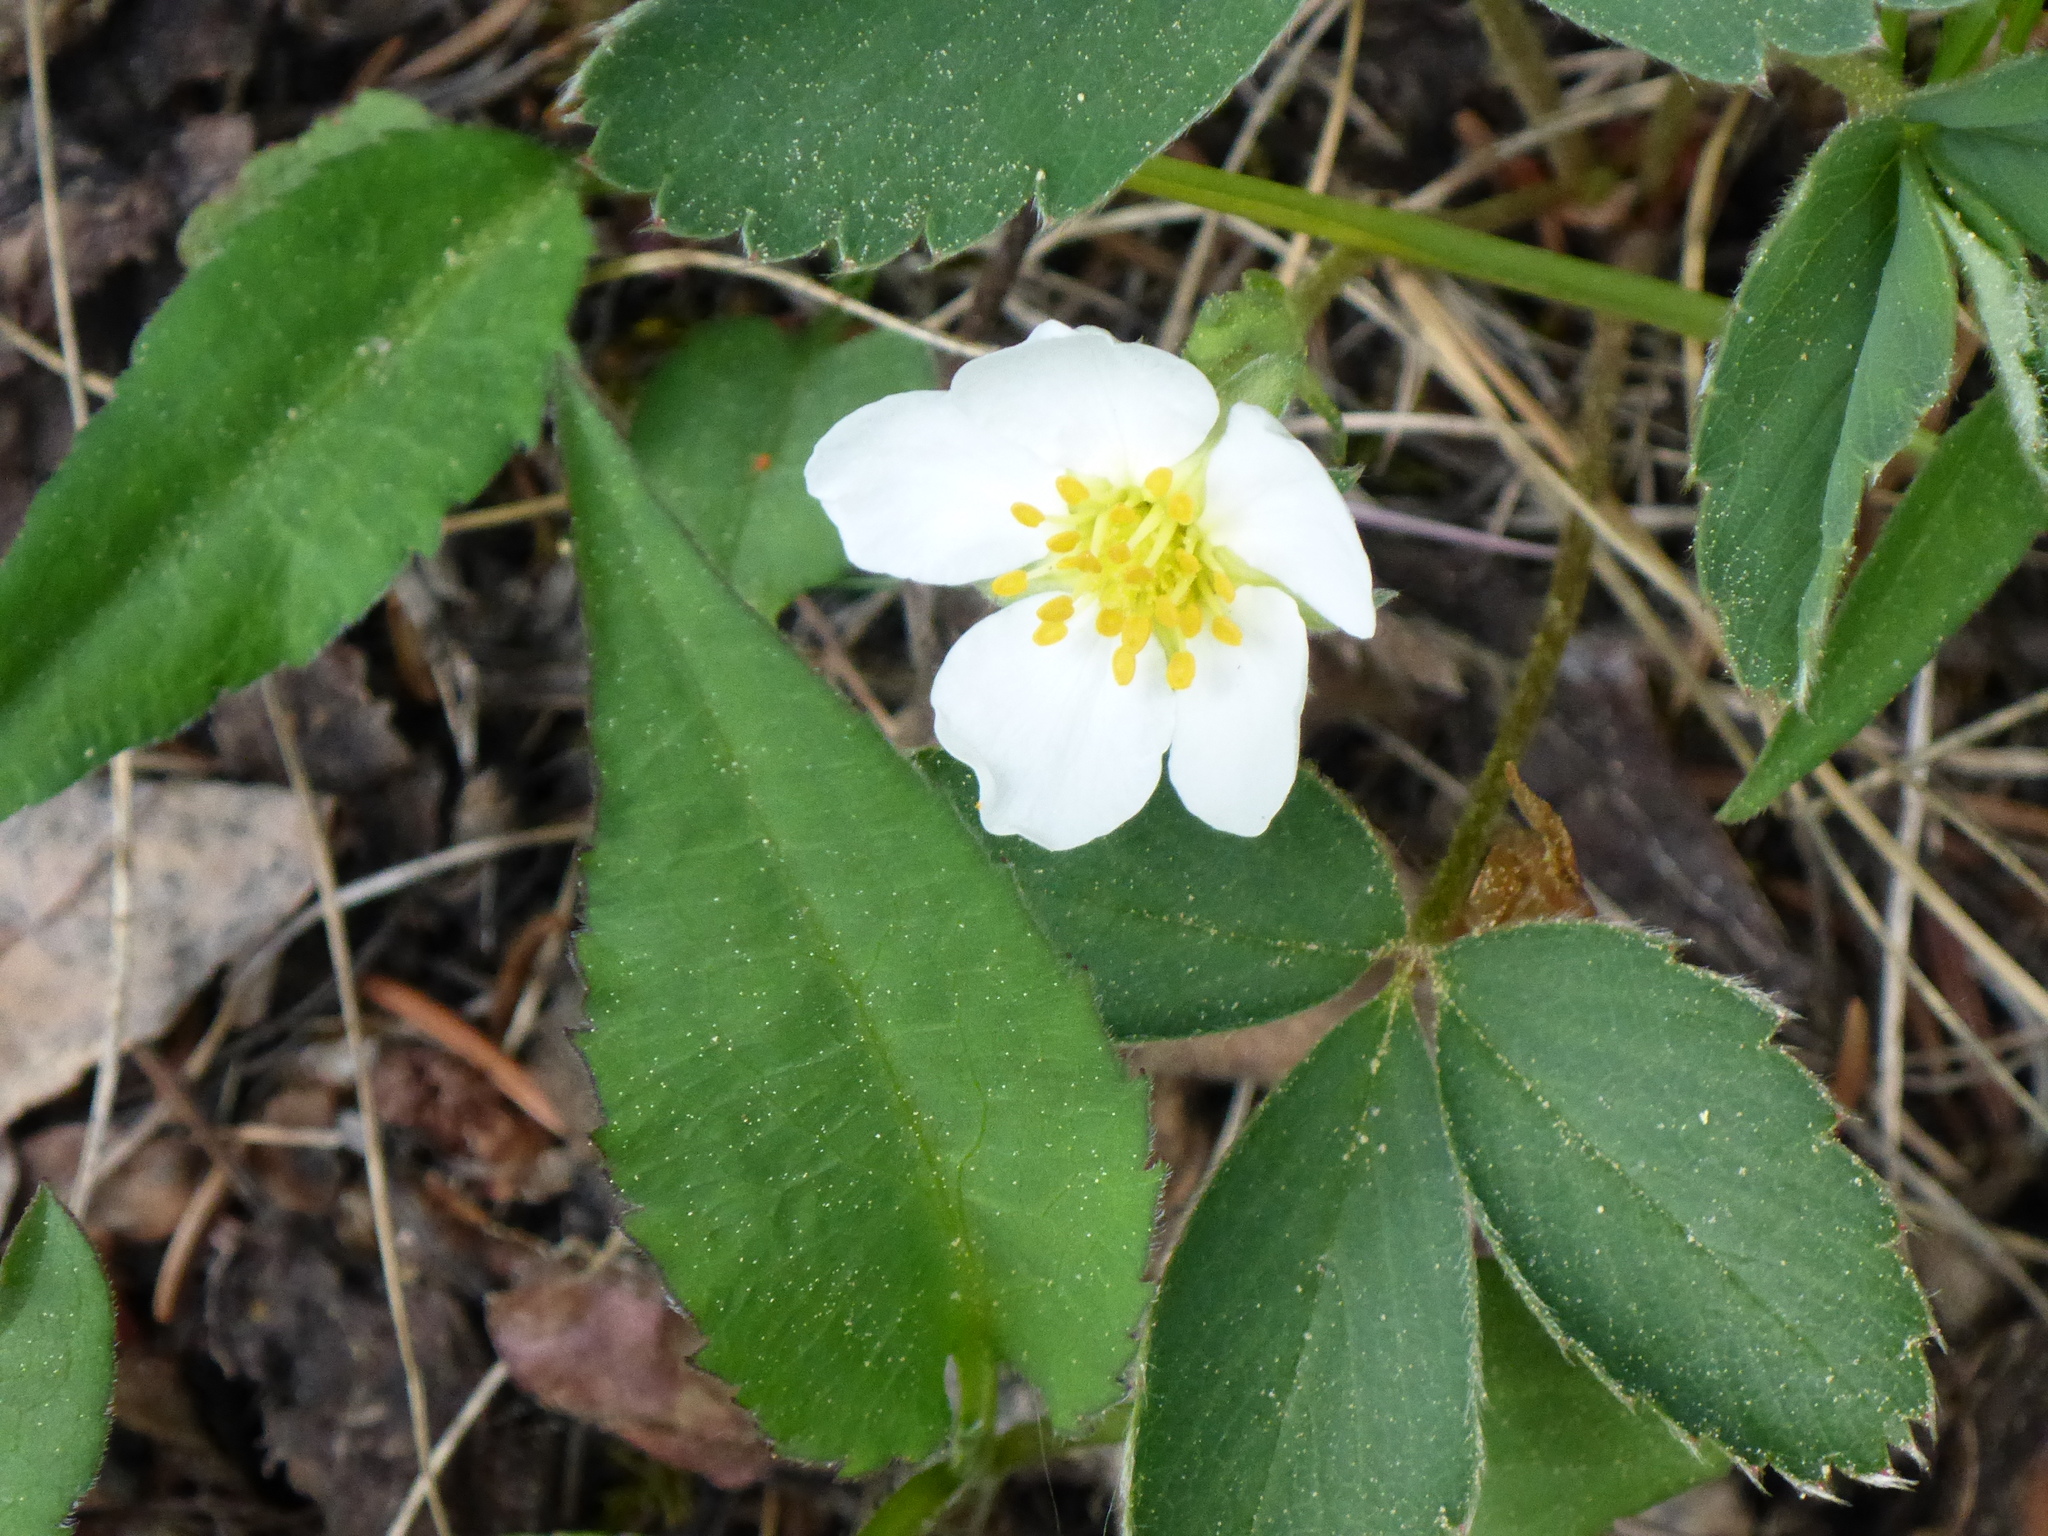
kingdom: Plantae
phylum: Tracheophyta
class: Magnoliopsida
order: Rosales
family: Rosaceae
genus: Fragaria
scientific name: Fragaria virginiana
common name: Thickleaved wild strawberry
